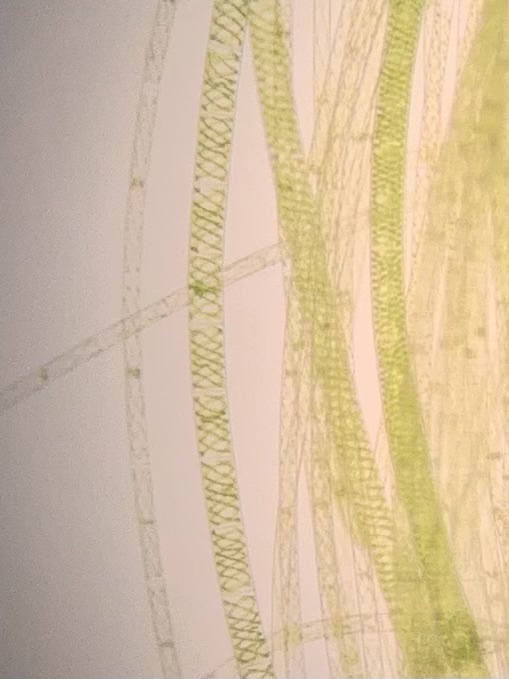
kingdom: Plantae
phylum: Charophyta
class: Zygnematophyceae
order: Zygnematales
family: Zygnemataceae
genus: Spirogyra
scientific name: Spirogyra
